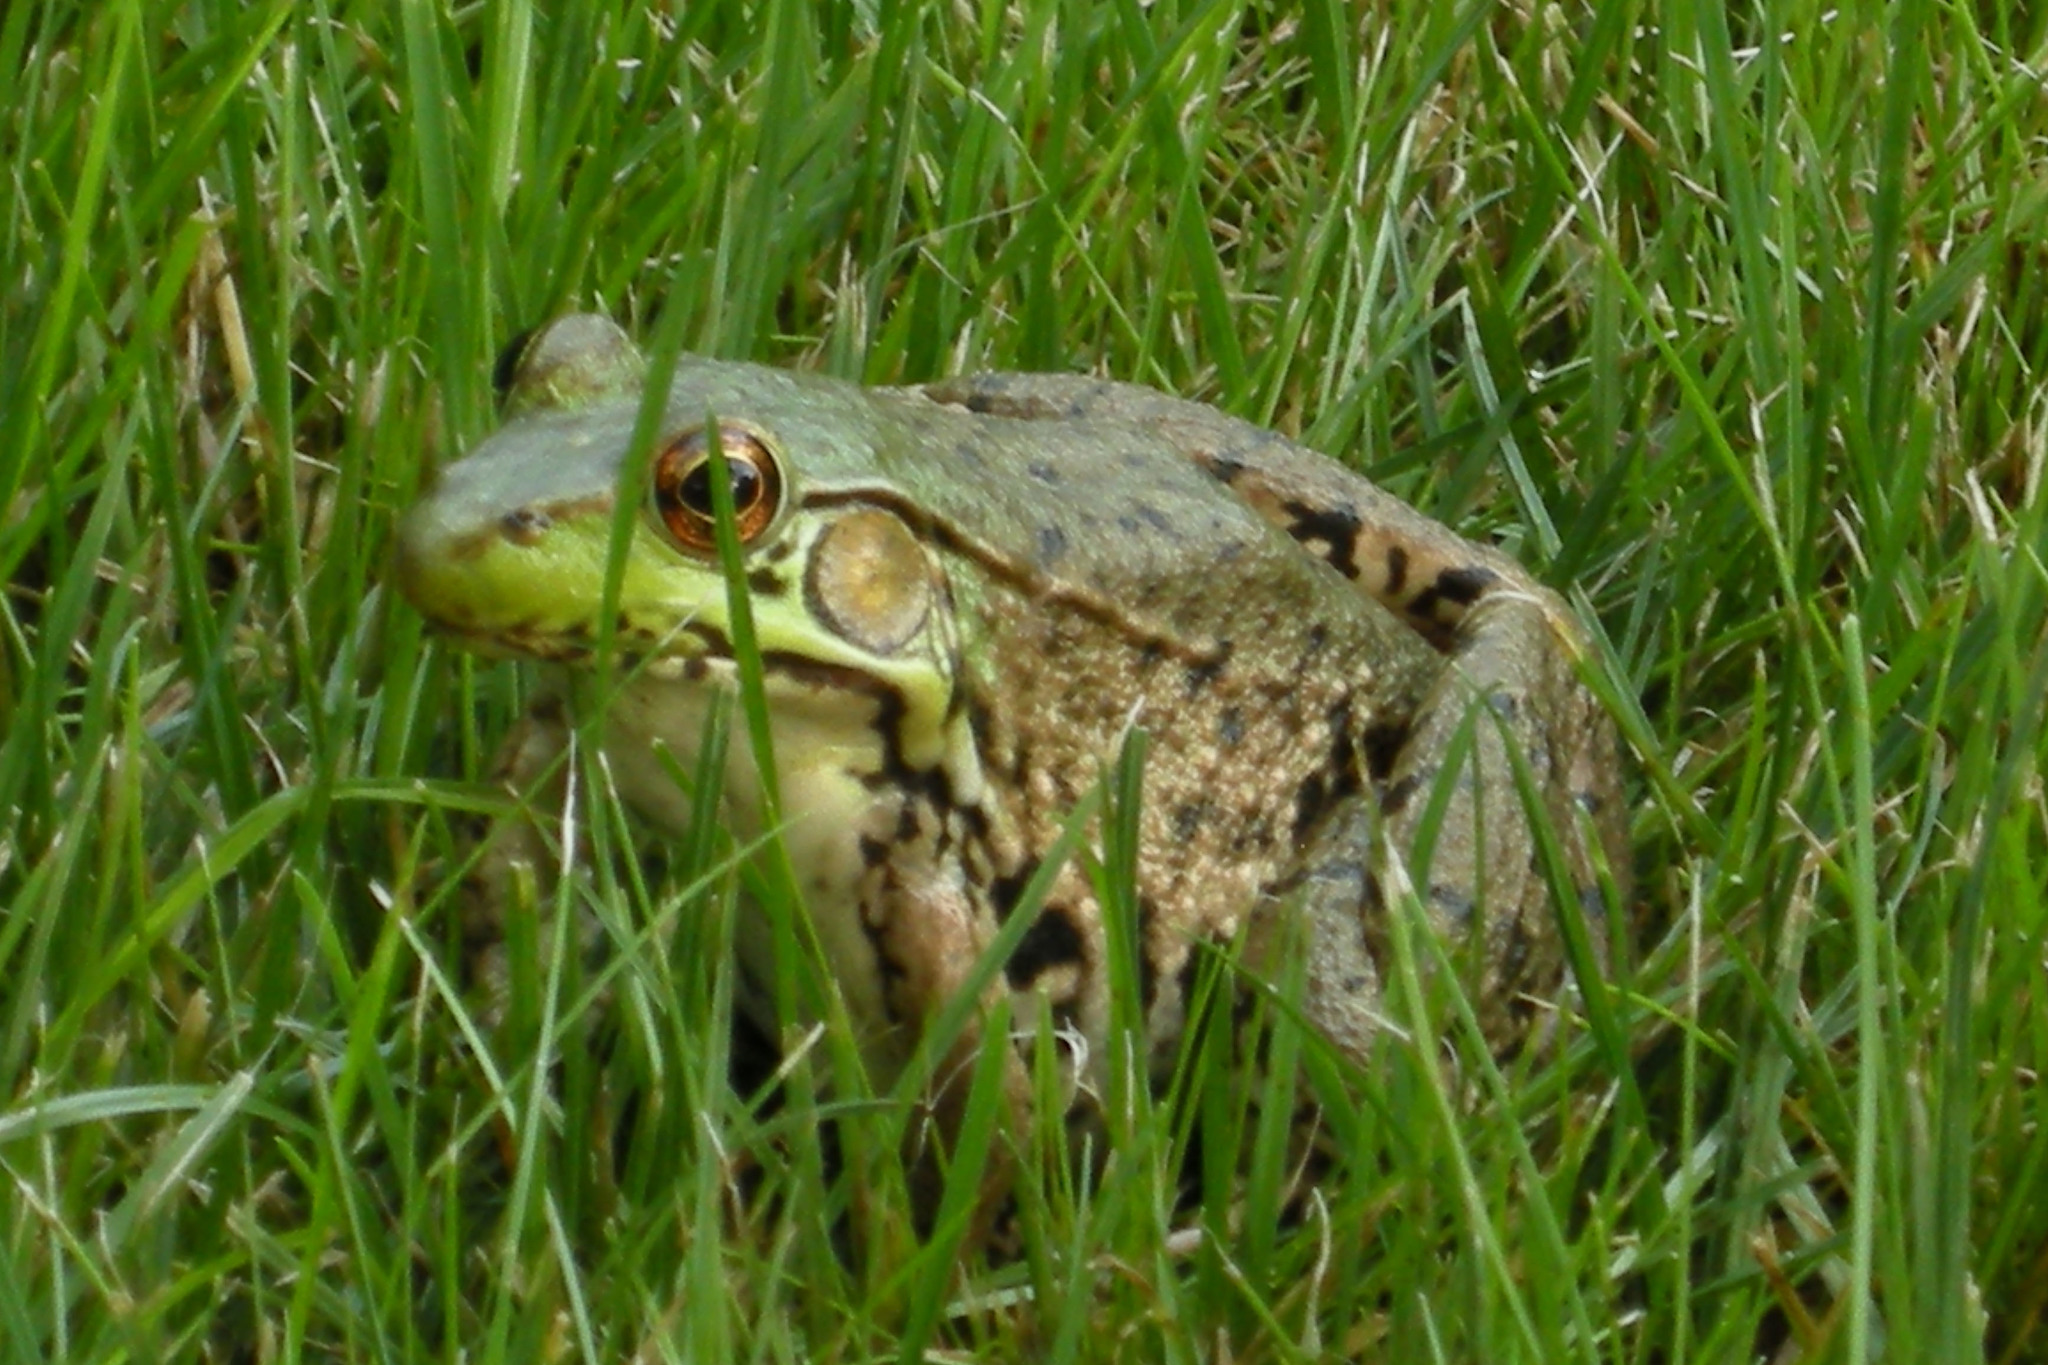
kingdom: Animalia
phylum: Chordata
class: Amphibia
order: Anura
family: Ranidae
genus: Lithobates
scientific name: Lithobates clamitans
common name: Green frog
